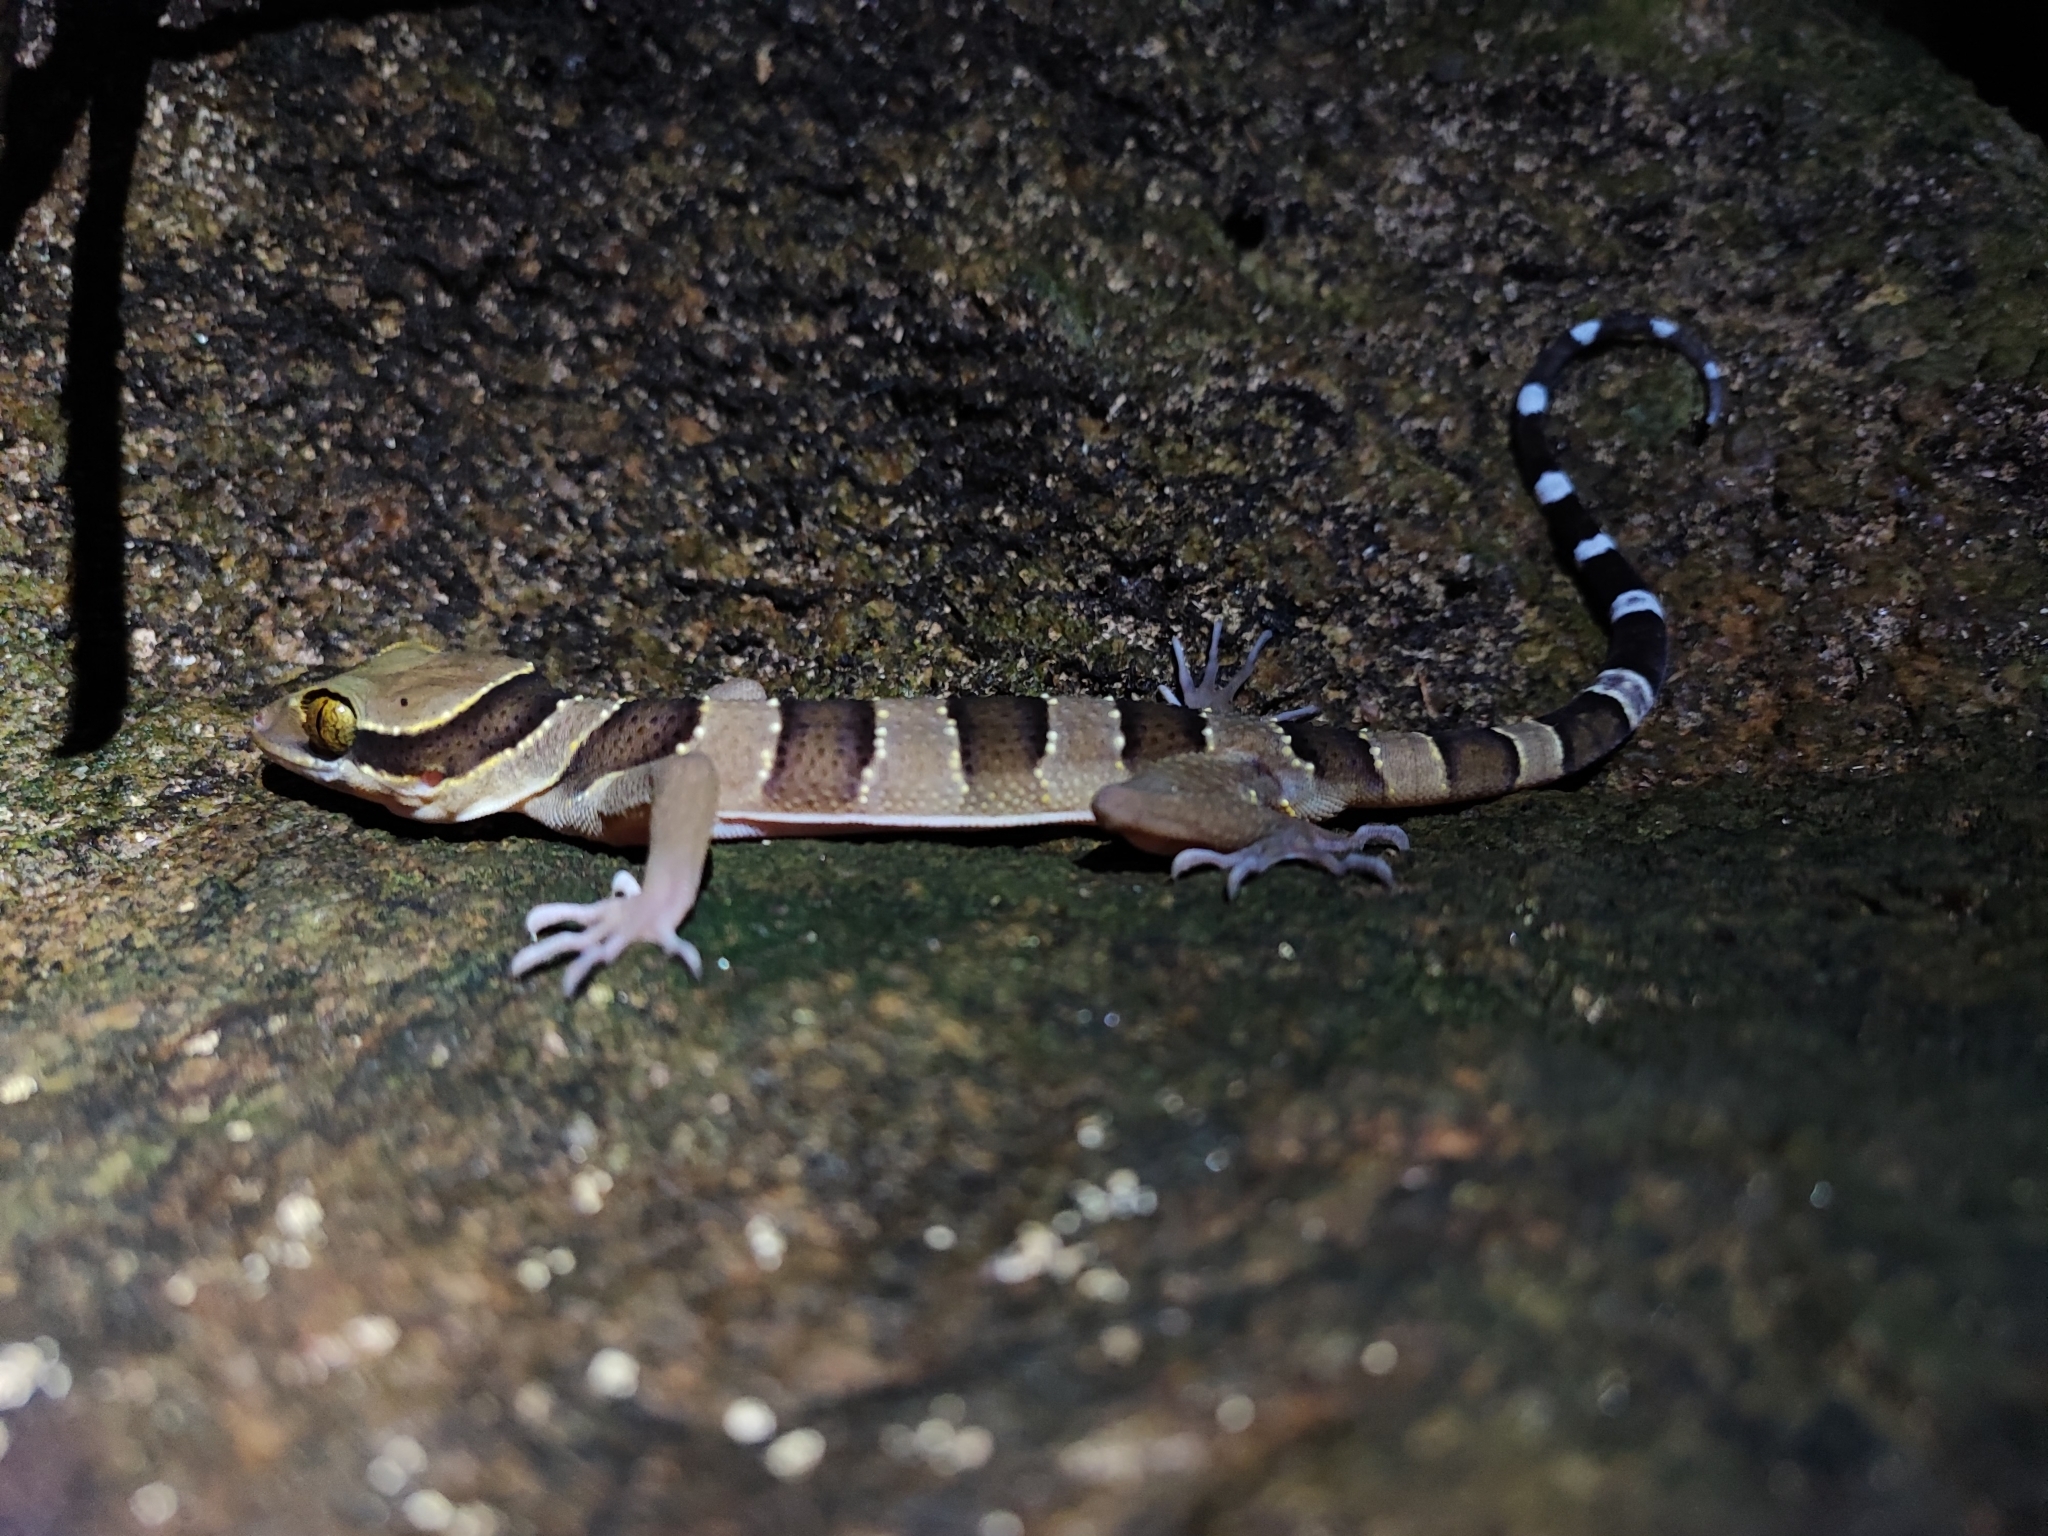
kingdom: Animalia
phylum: Chordata
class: Squamata
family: Gekkonidae
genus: Cyrtodactylus
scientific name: Cyrtodactylus lekaguli
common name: Tuk-kai boonsong bent-toed gecko
